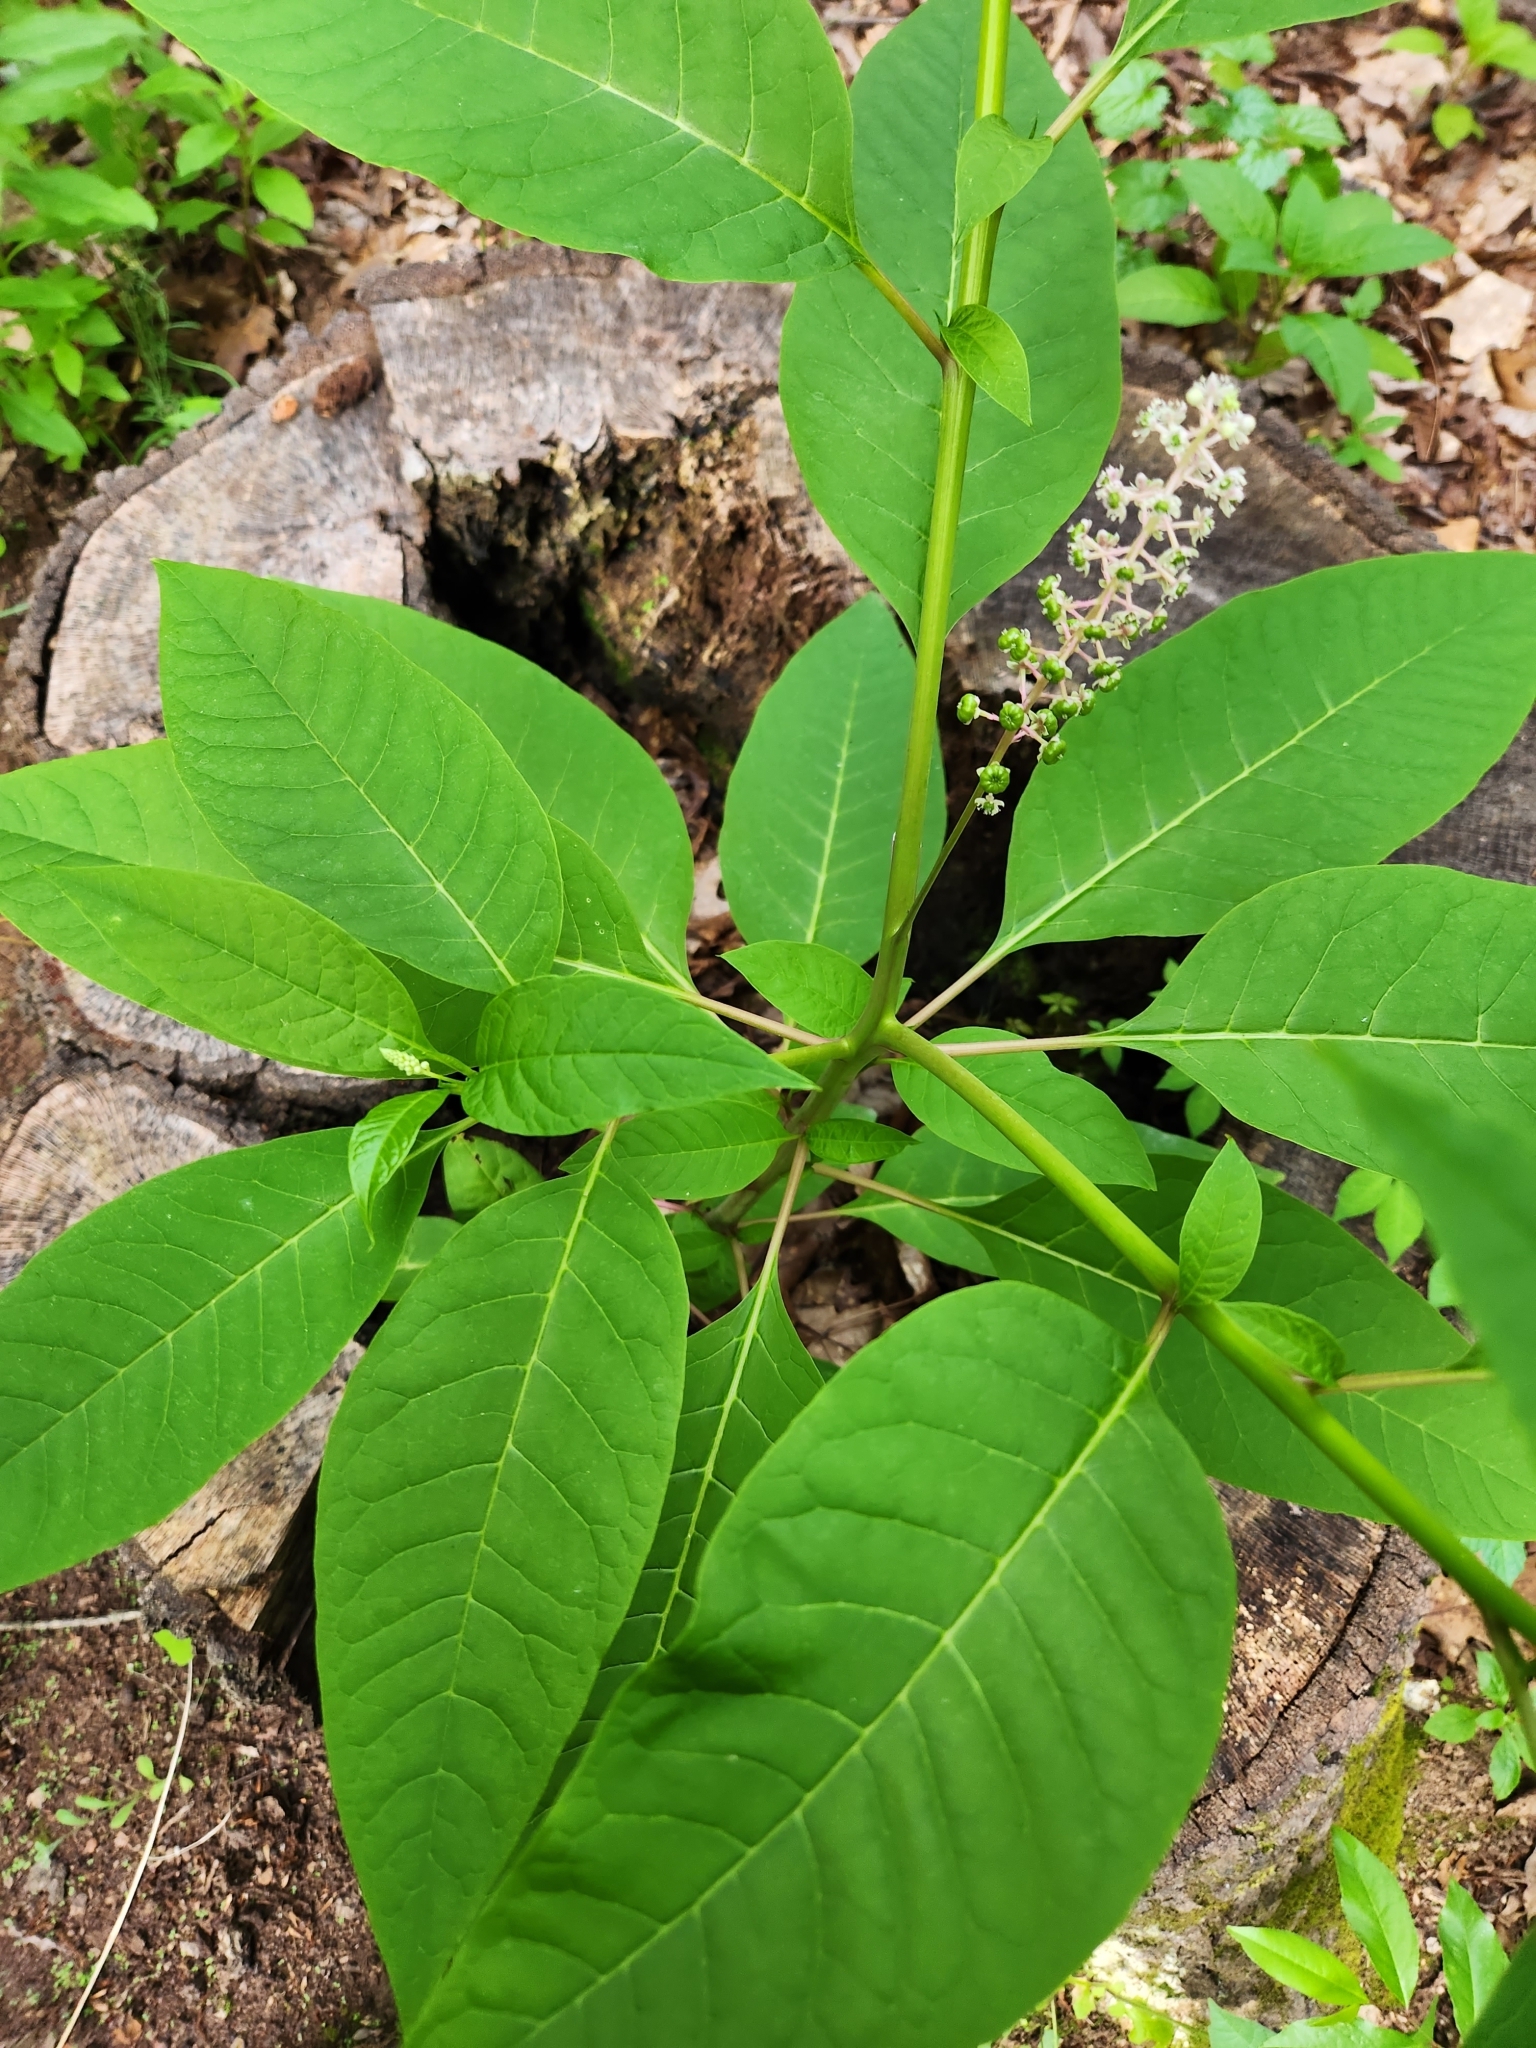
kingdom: Plantae
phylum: Tracheophyta
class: Magnoliopsida
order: Caryophyllales
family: Phytolaccaceae
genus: Phytolacca
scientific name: Phytolacca americana
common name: American pokeweed
